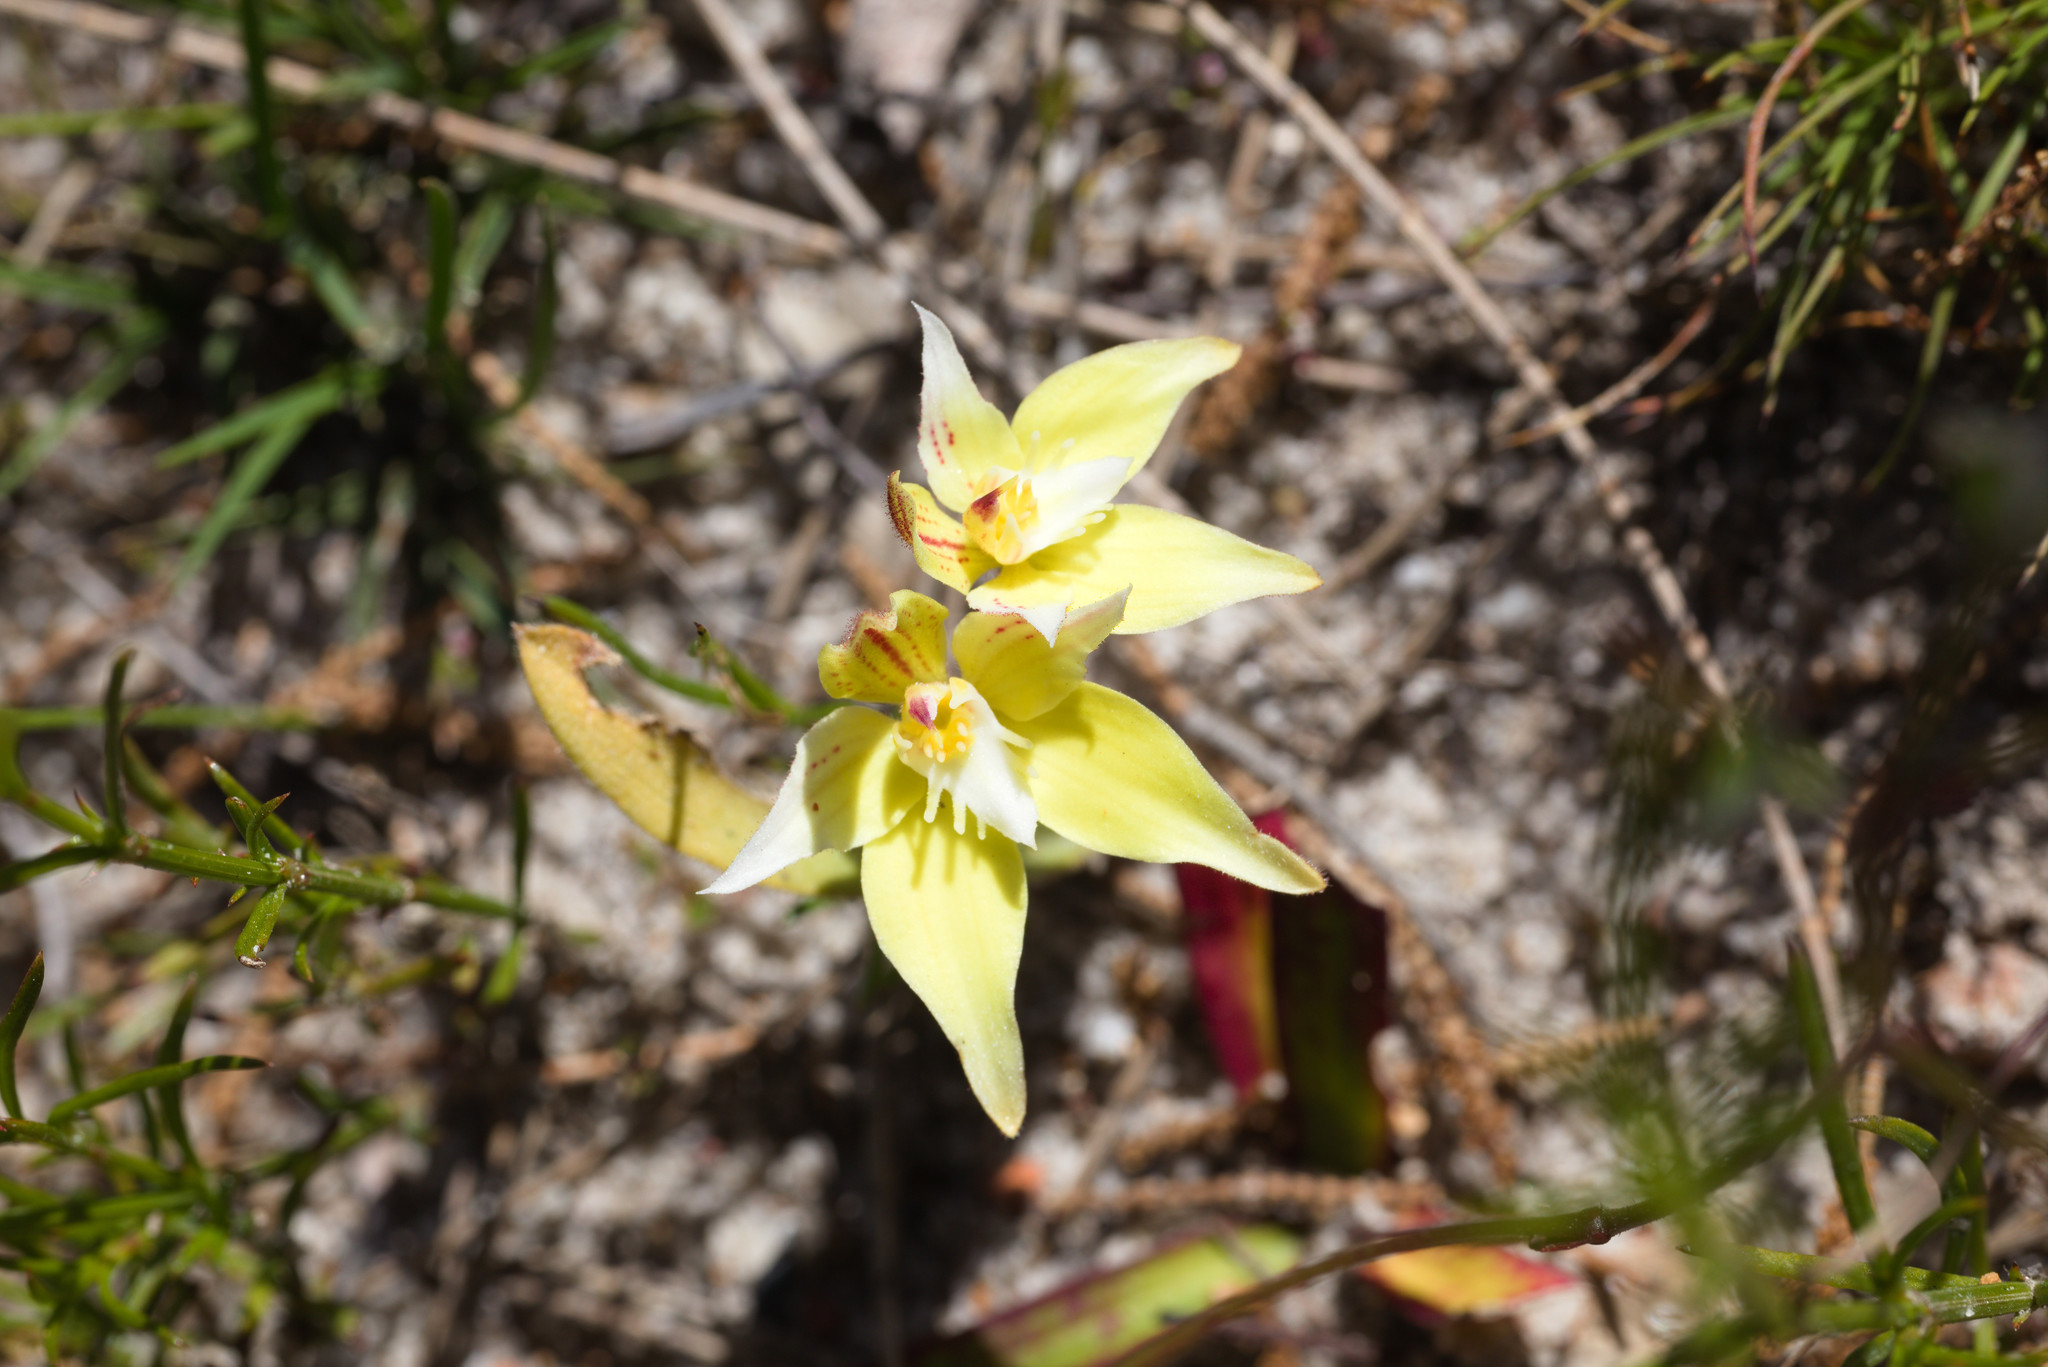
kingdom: Plantae
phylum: Tracheophyta
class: Liliopsida
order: Asparagales
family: Orchidaceae
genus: Caladenia
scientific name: Caladenia flava
